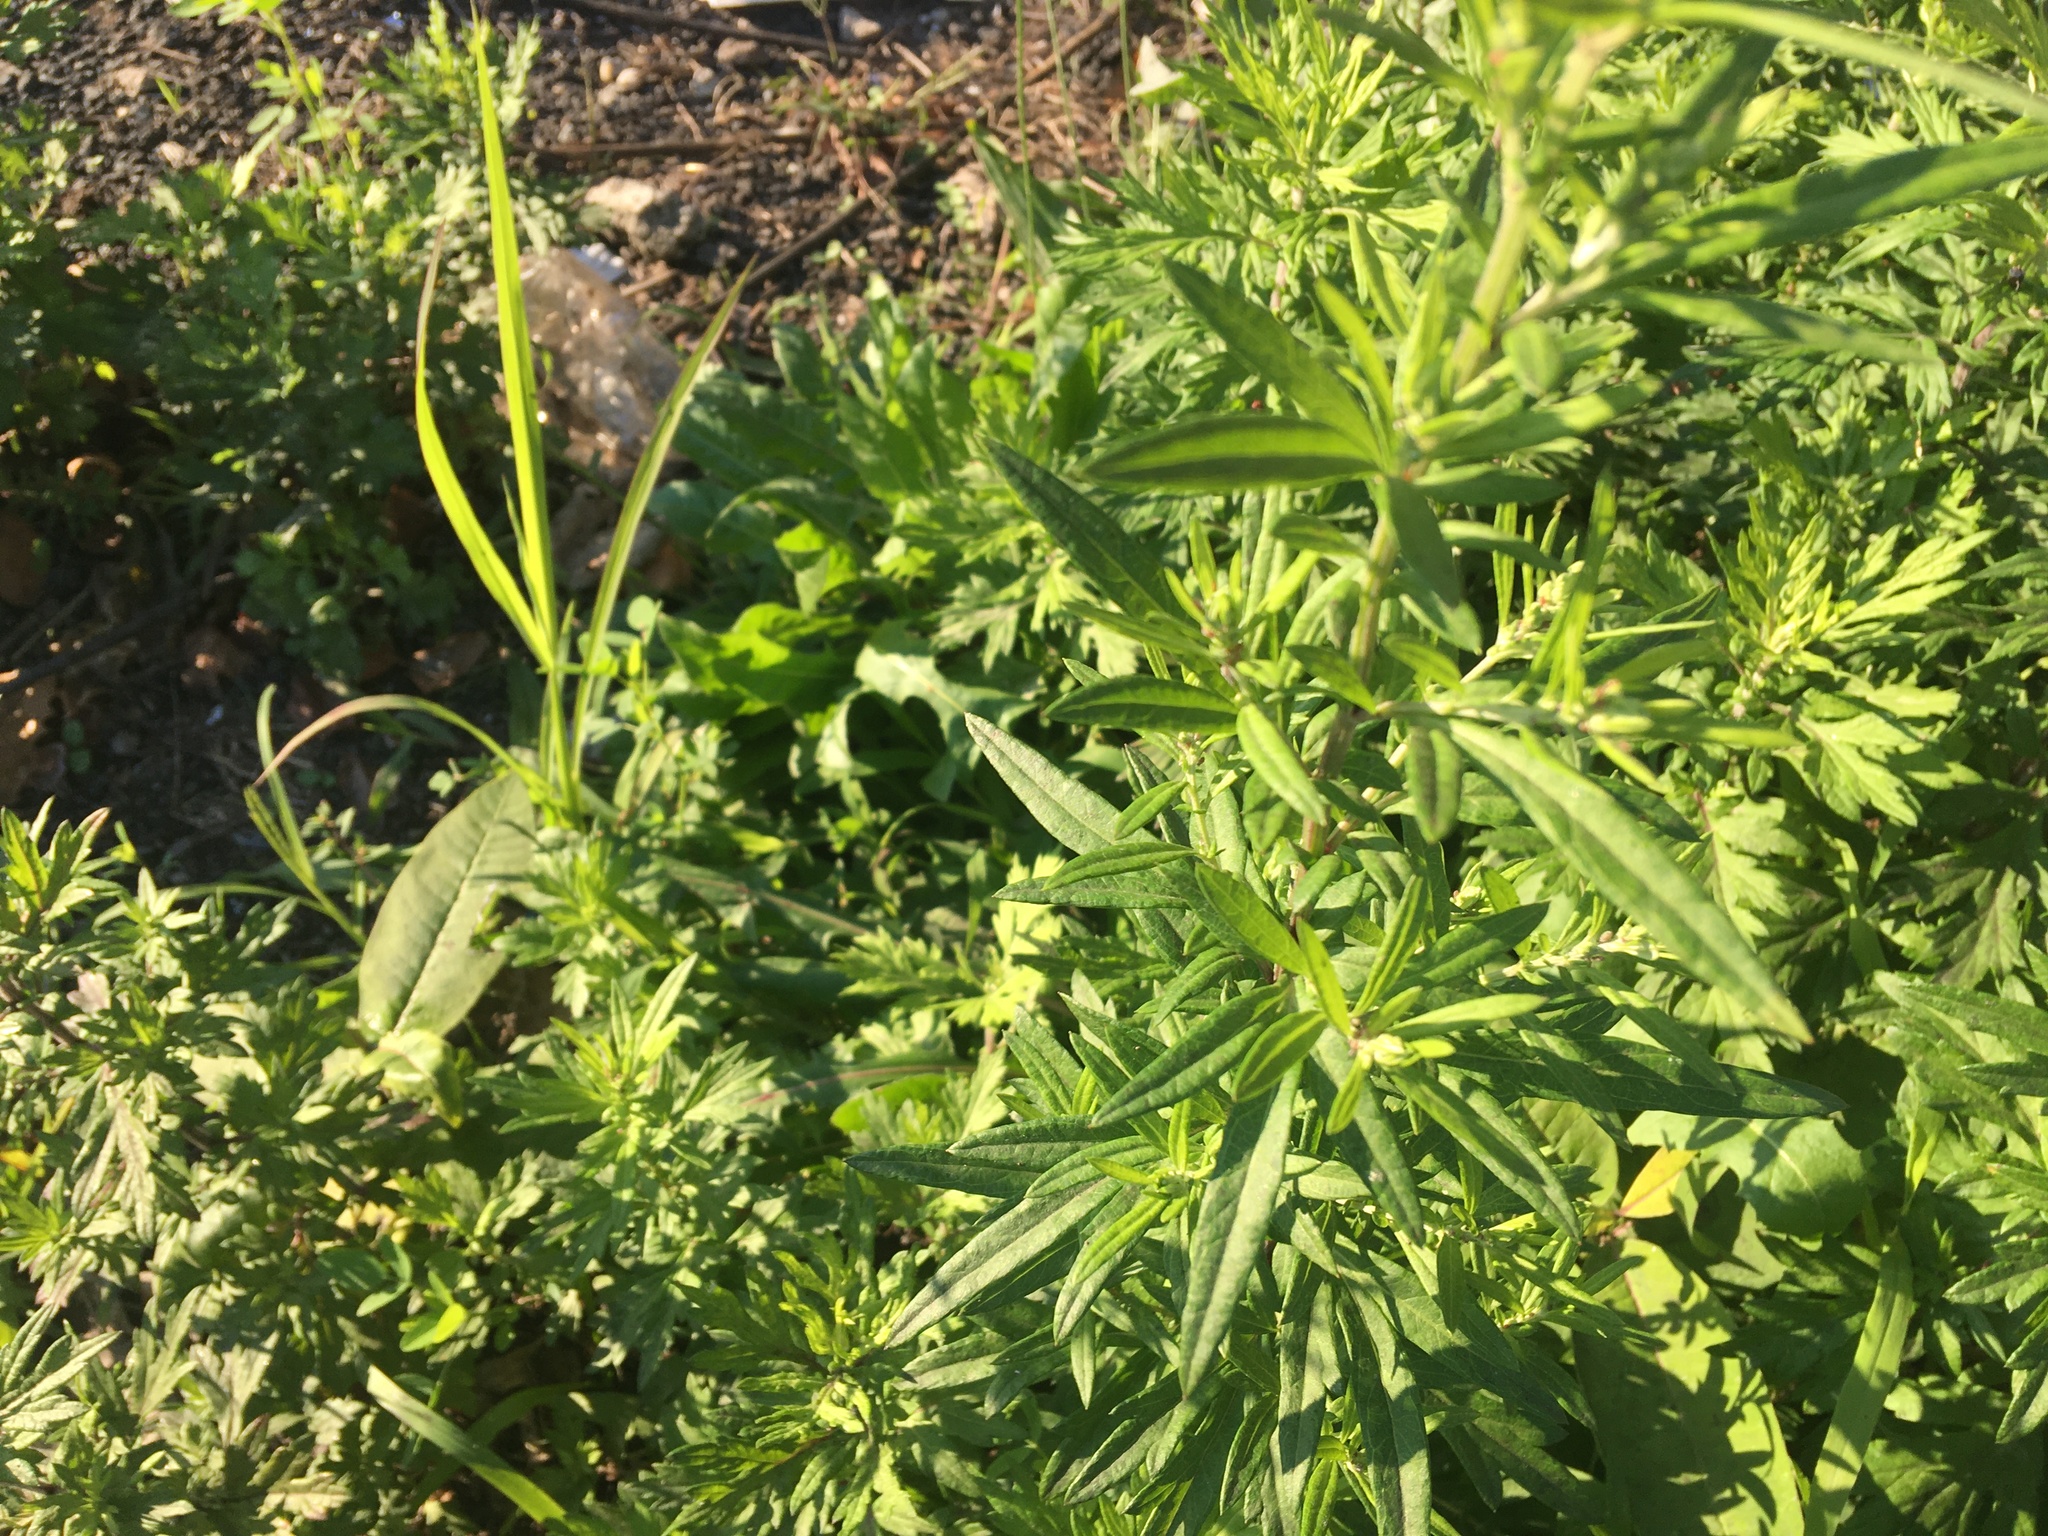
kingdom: Plantae
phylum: Tracheophyta
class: Magnoliopsida
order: Asterales
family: Asteraceae
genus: Artemisia
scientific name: Artemisia vulgaris
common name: Mugwort
